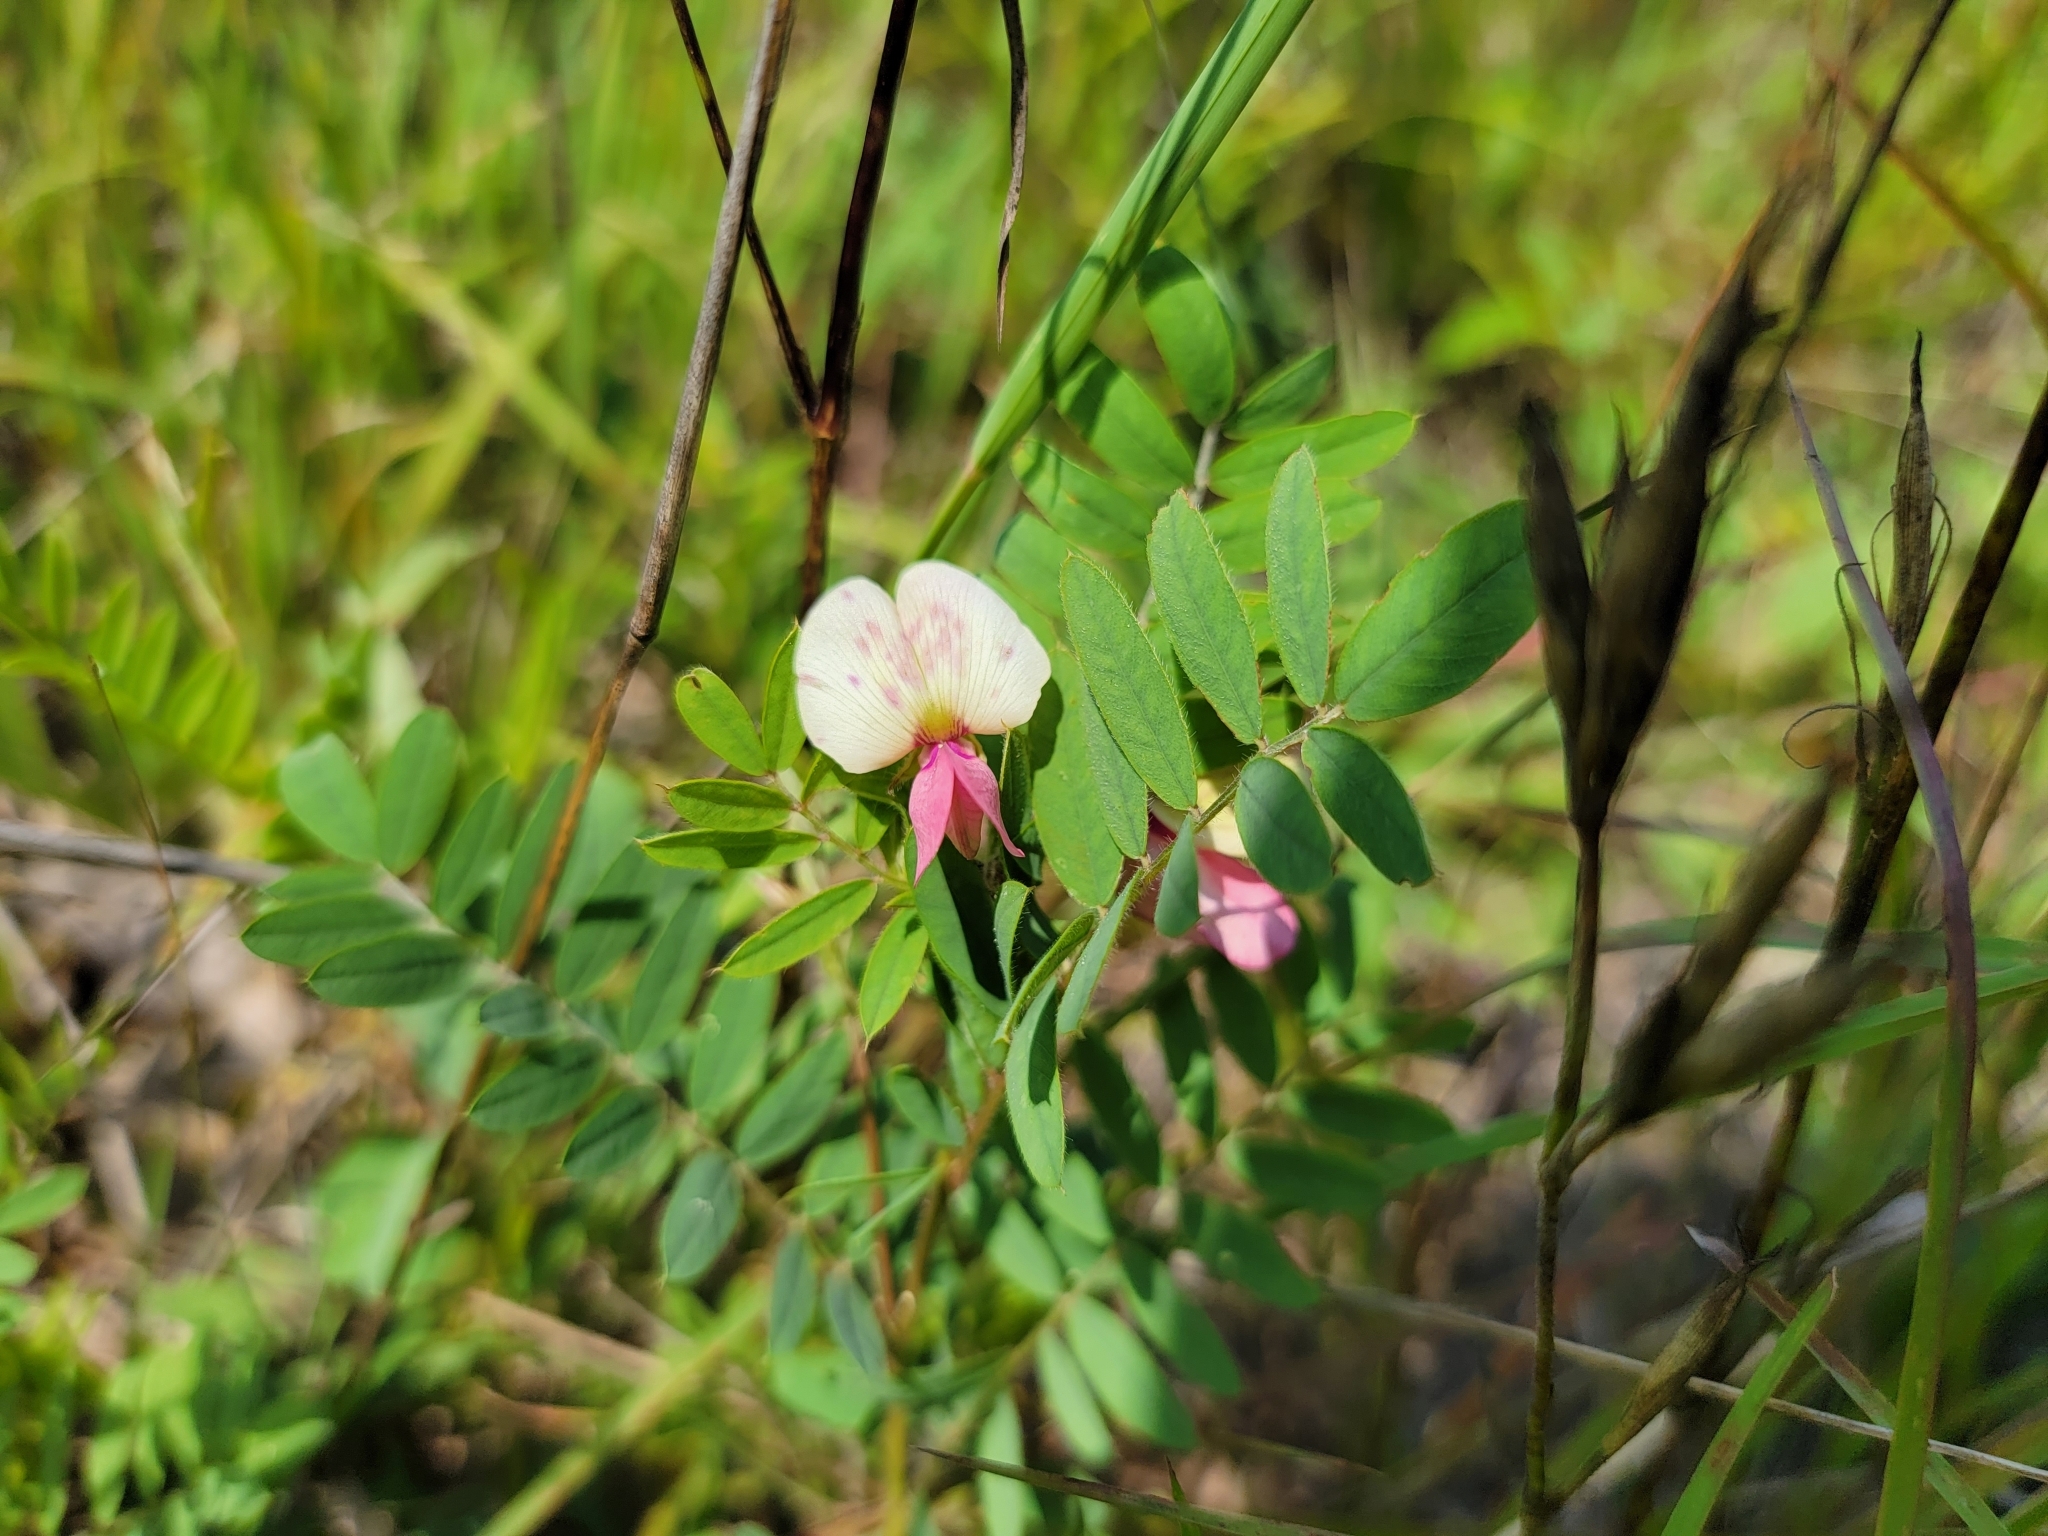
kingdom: Plantae
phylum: Tracheophyta
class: Magnoliopsida
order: Fabales
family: Fabaceae
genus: Tephrosia
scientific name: Tephrosia virginiana
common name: Rabbit-pea
